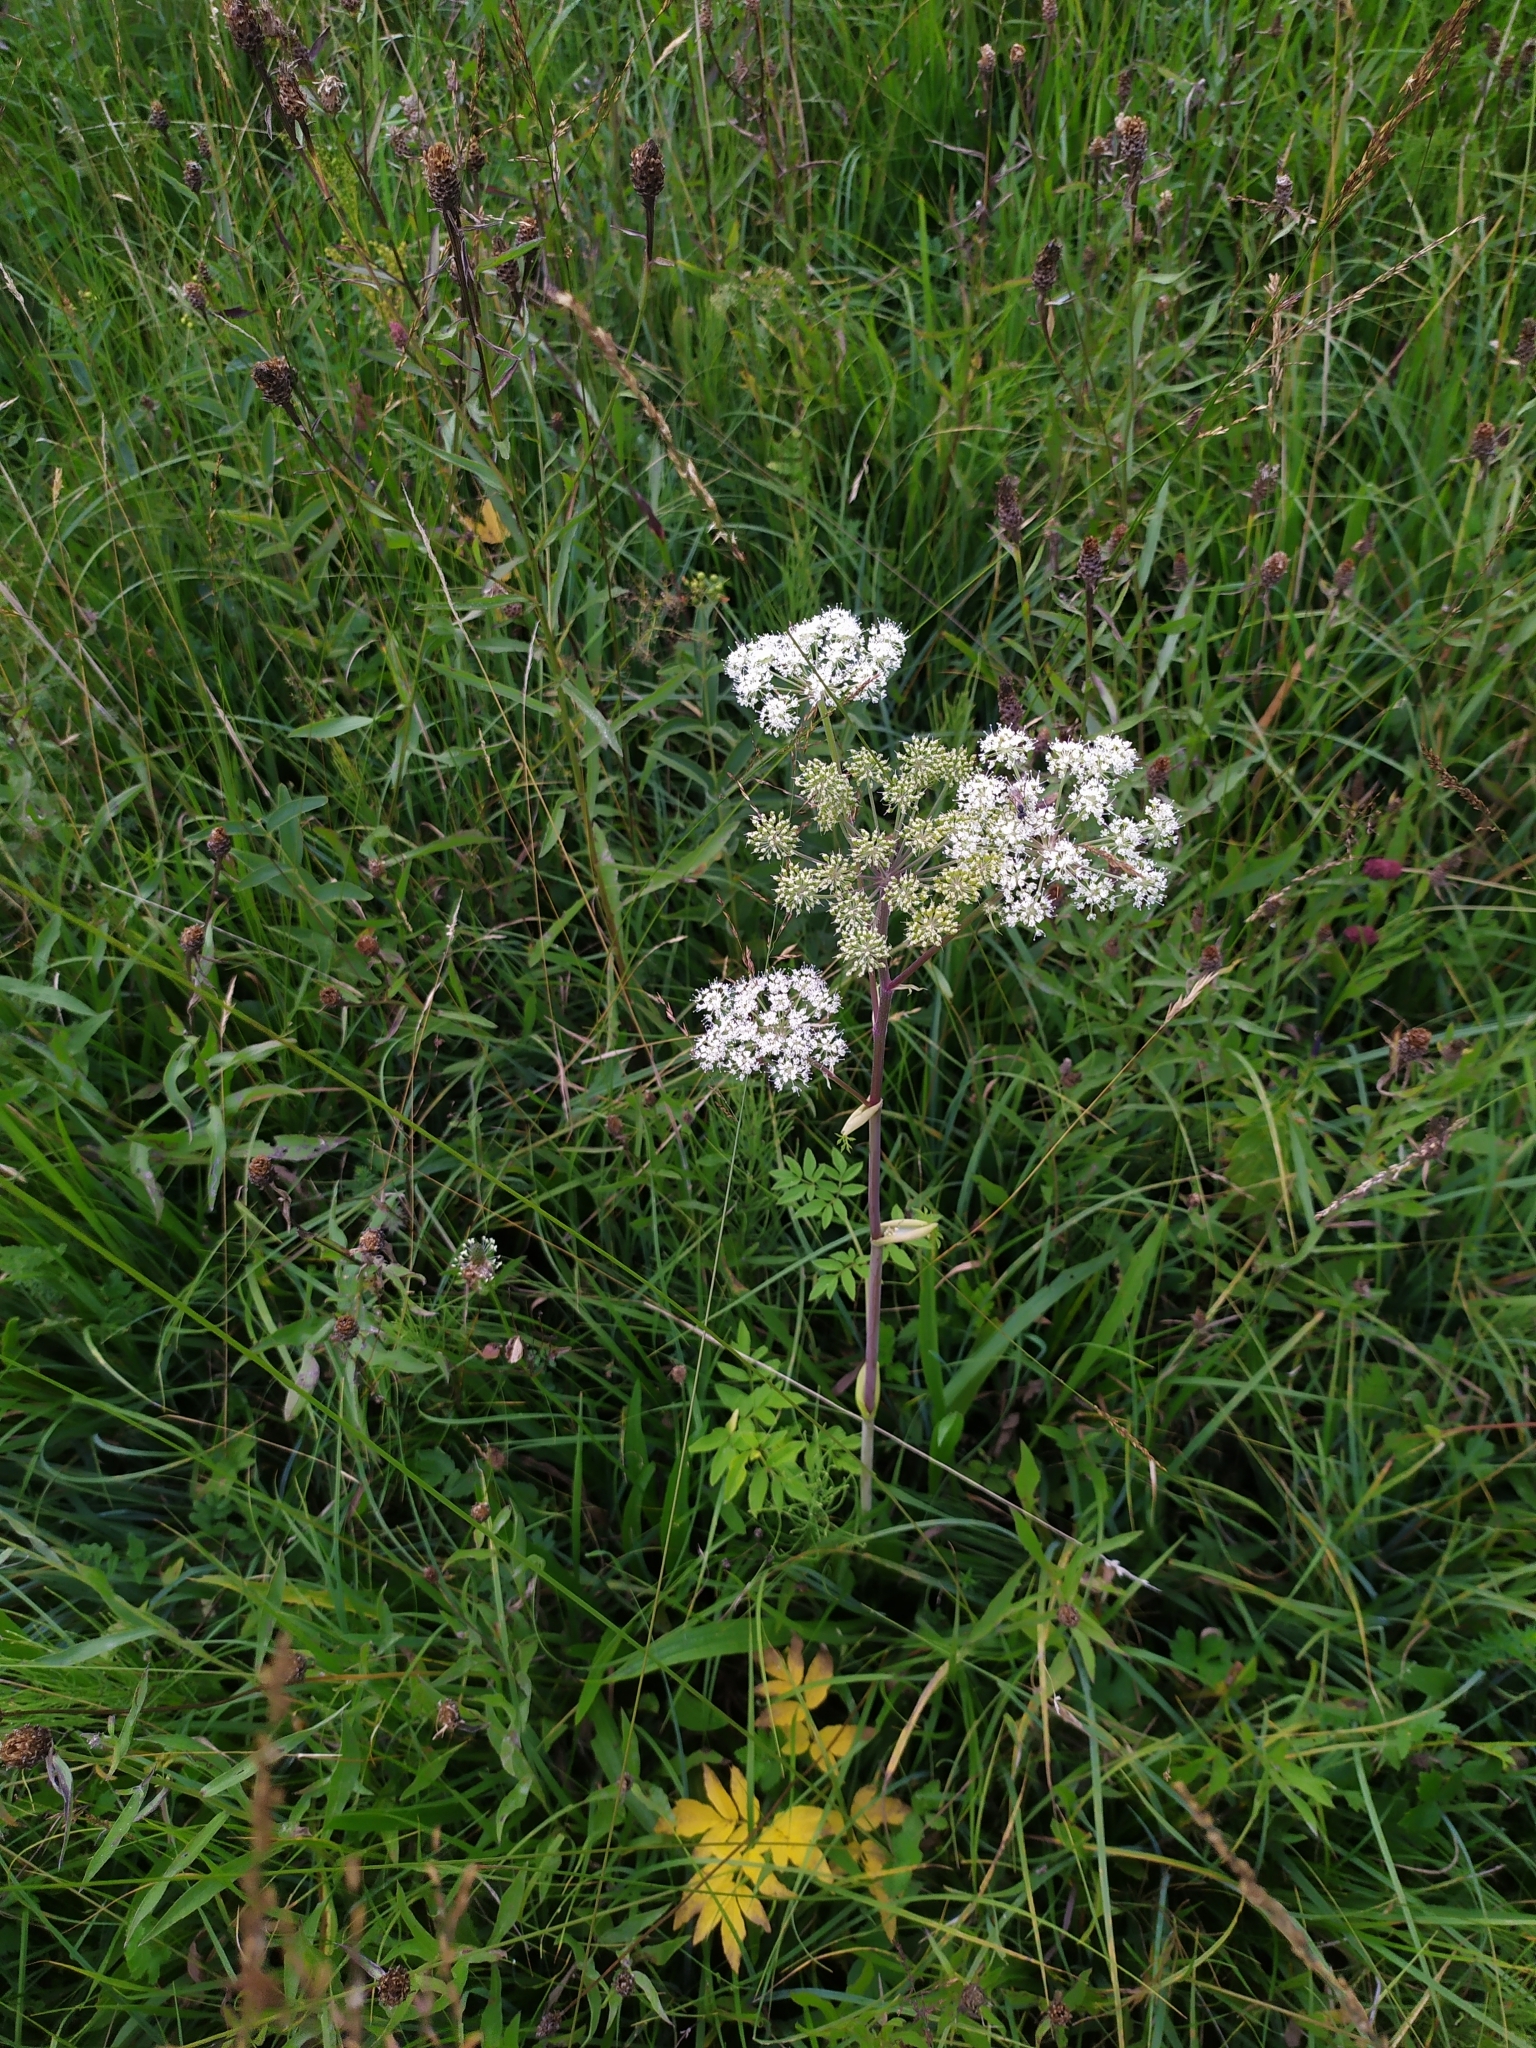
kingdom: Plantae
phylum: Tracheophyta
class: Magnoliopsida
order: Apiales
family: Apiaceae
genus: Angelica
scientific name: Angelica sylvestris
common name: Wild angelica
